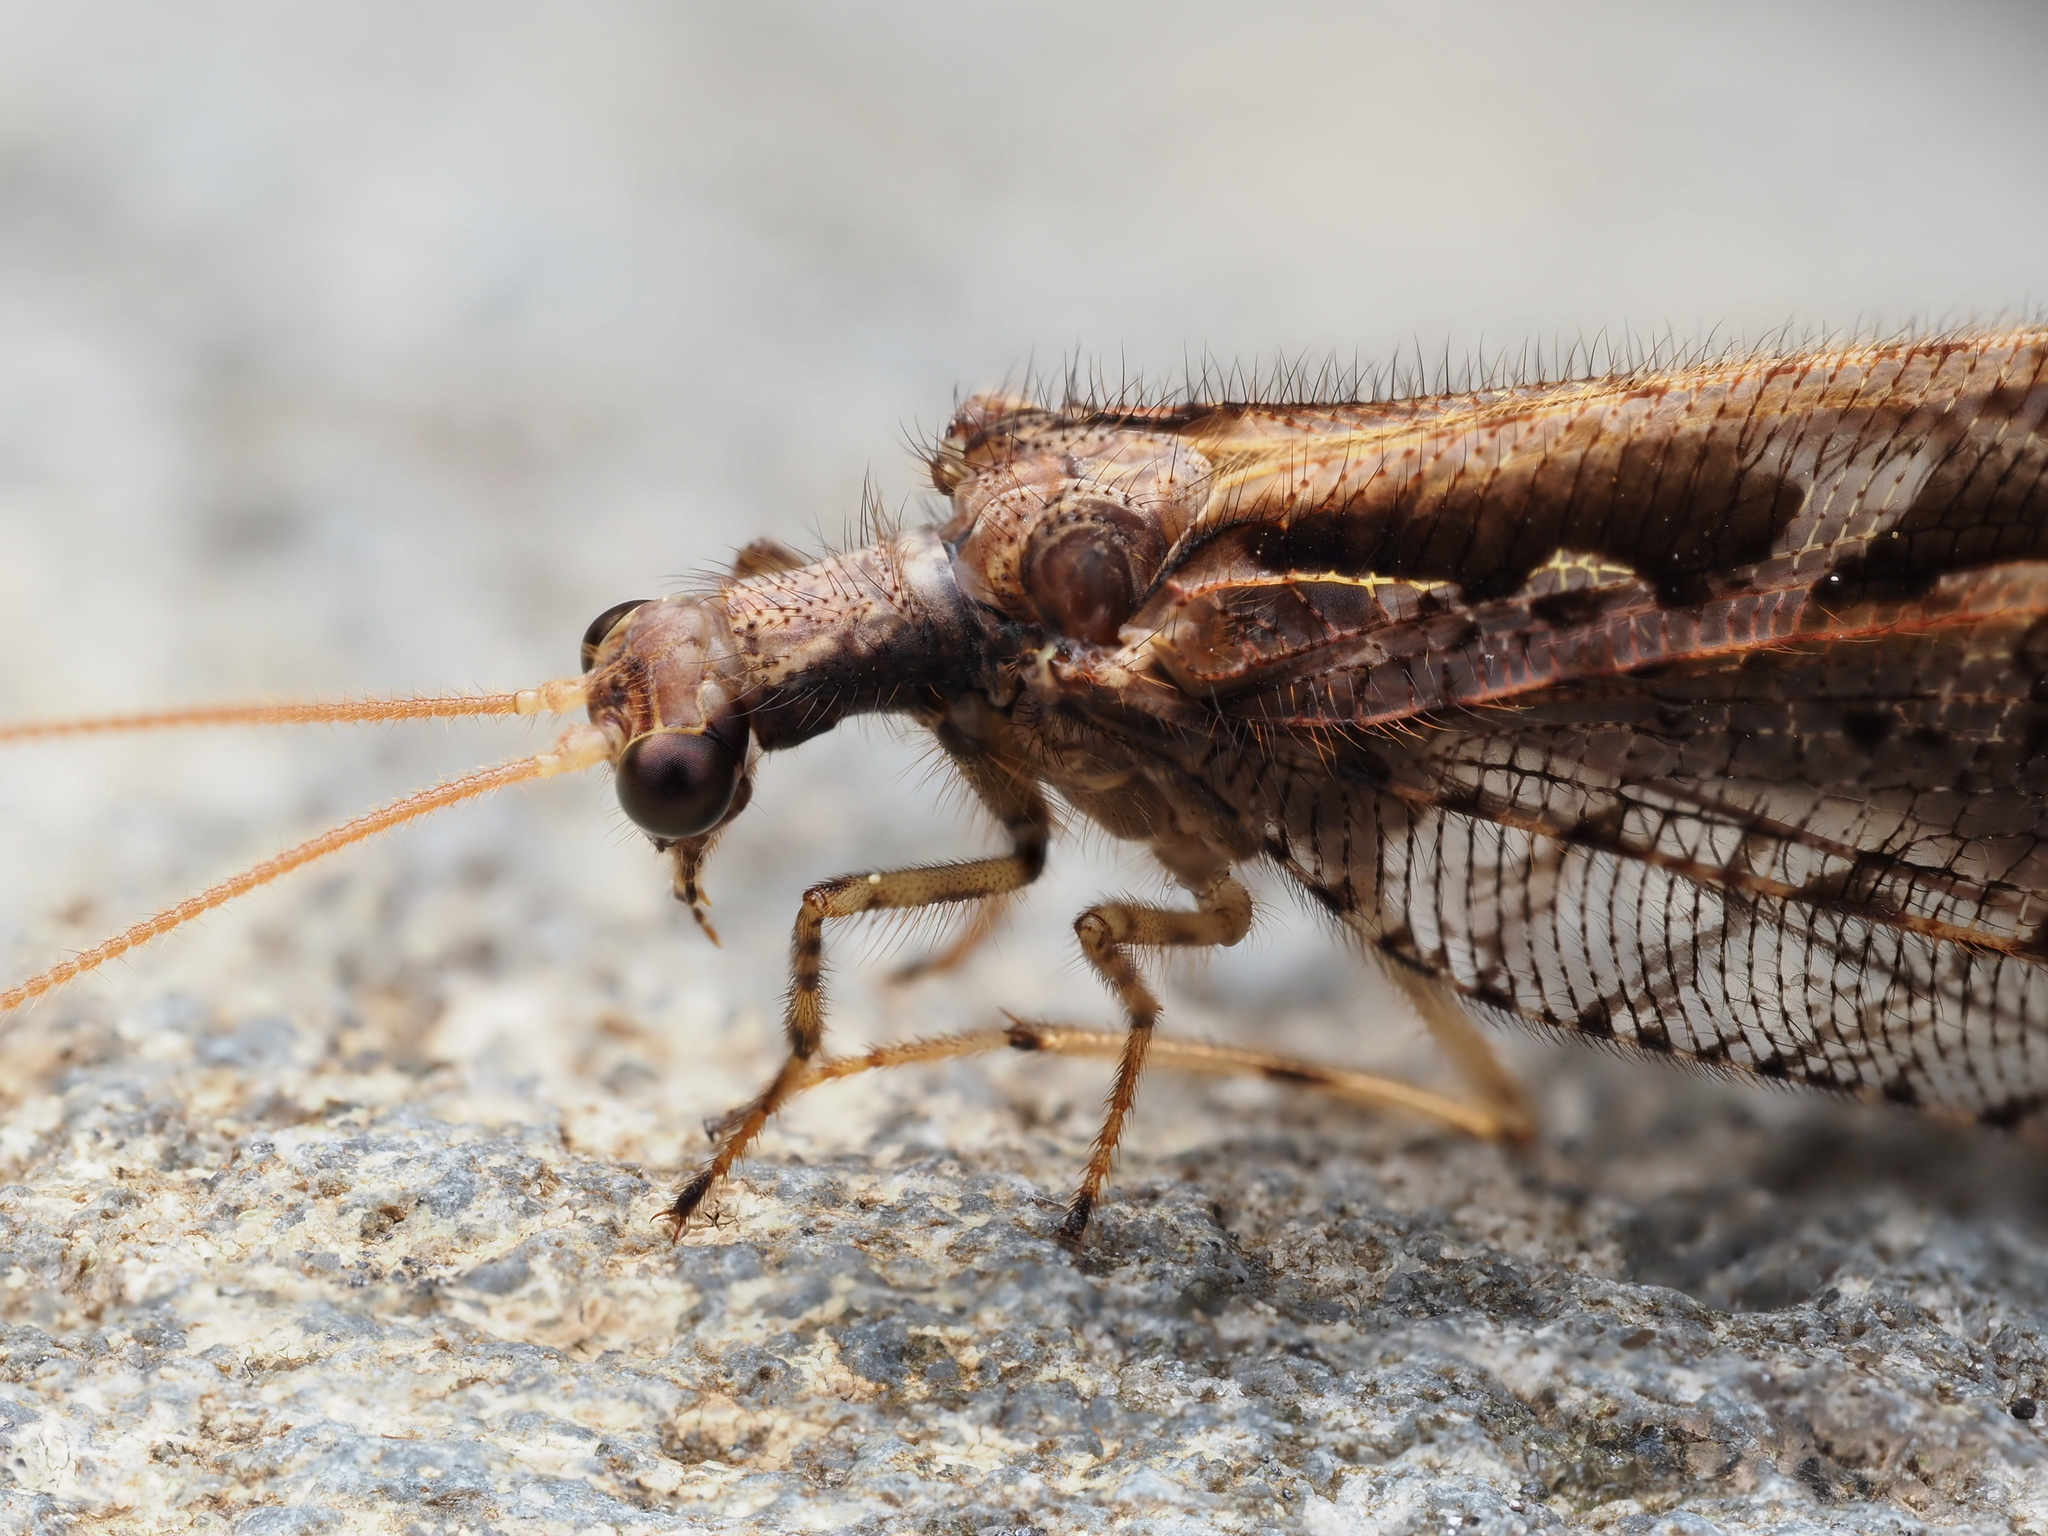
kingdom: Animalia
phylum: Arthropoda
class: Insecta
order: Neuroptera
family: Osmylidae
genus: Kempynus
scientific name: Kempynus incisus
